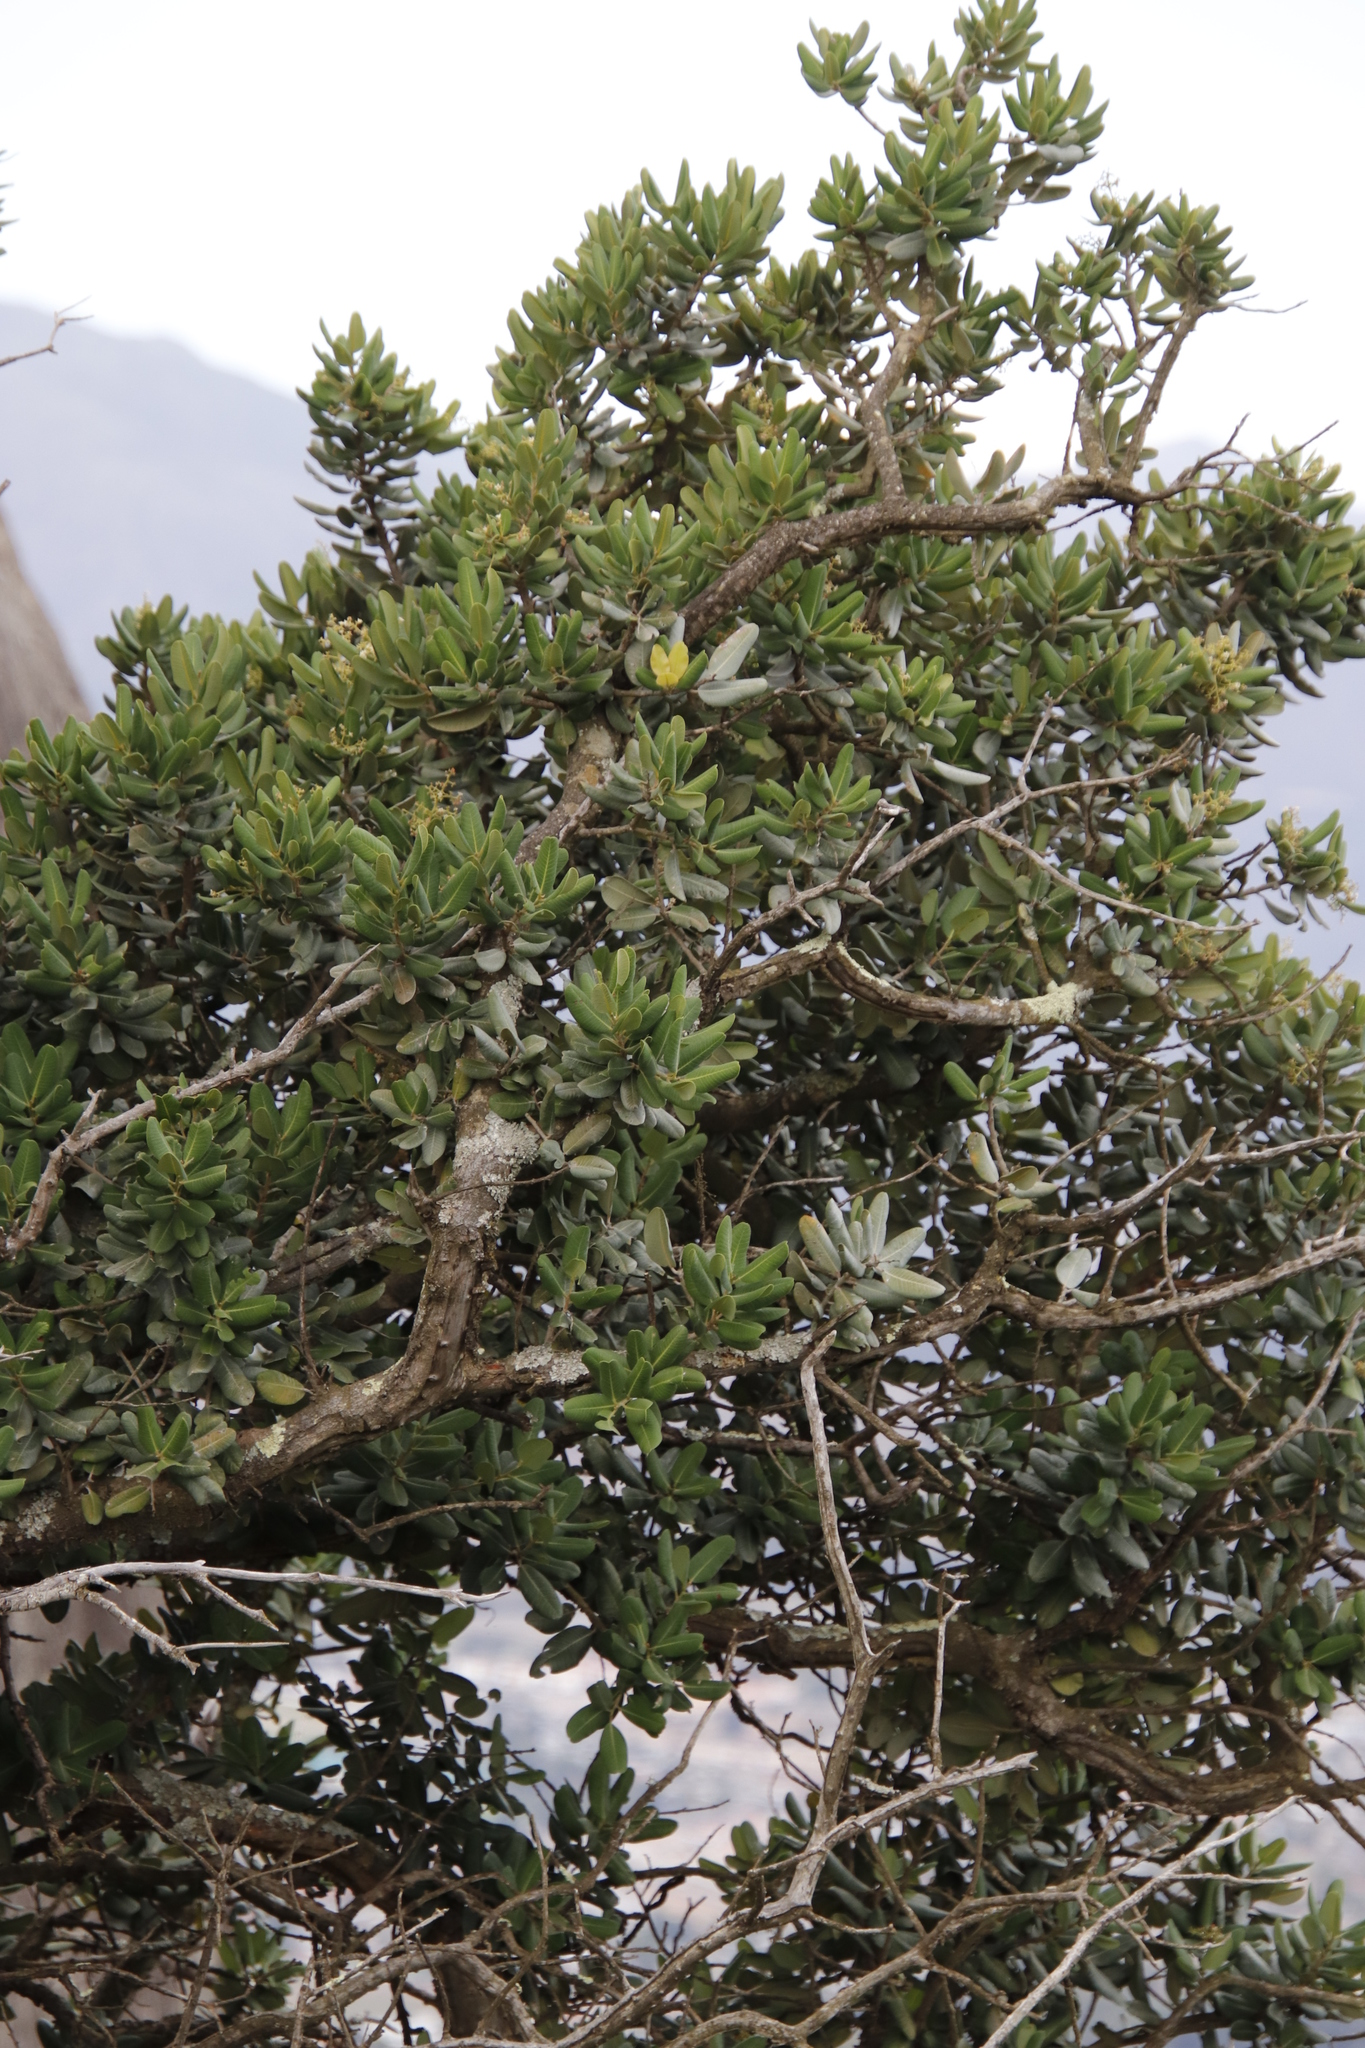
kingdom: Plantae
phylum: Tracheophyta
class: Magnoliopsida
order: Sapindales
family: Anacardiaceae
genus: Heeria
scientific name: Heeria argentea
